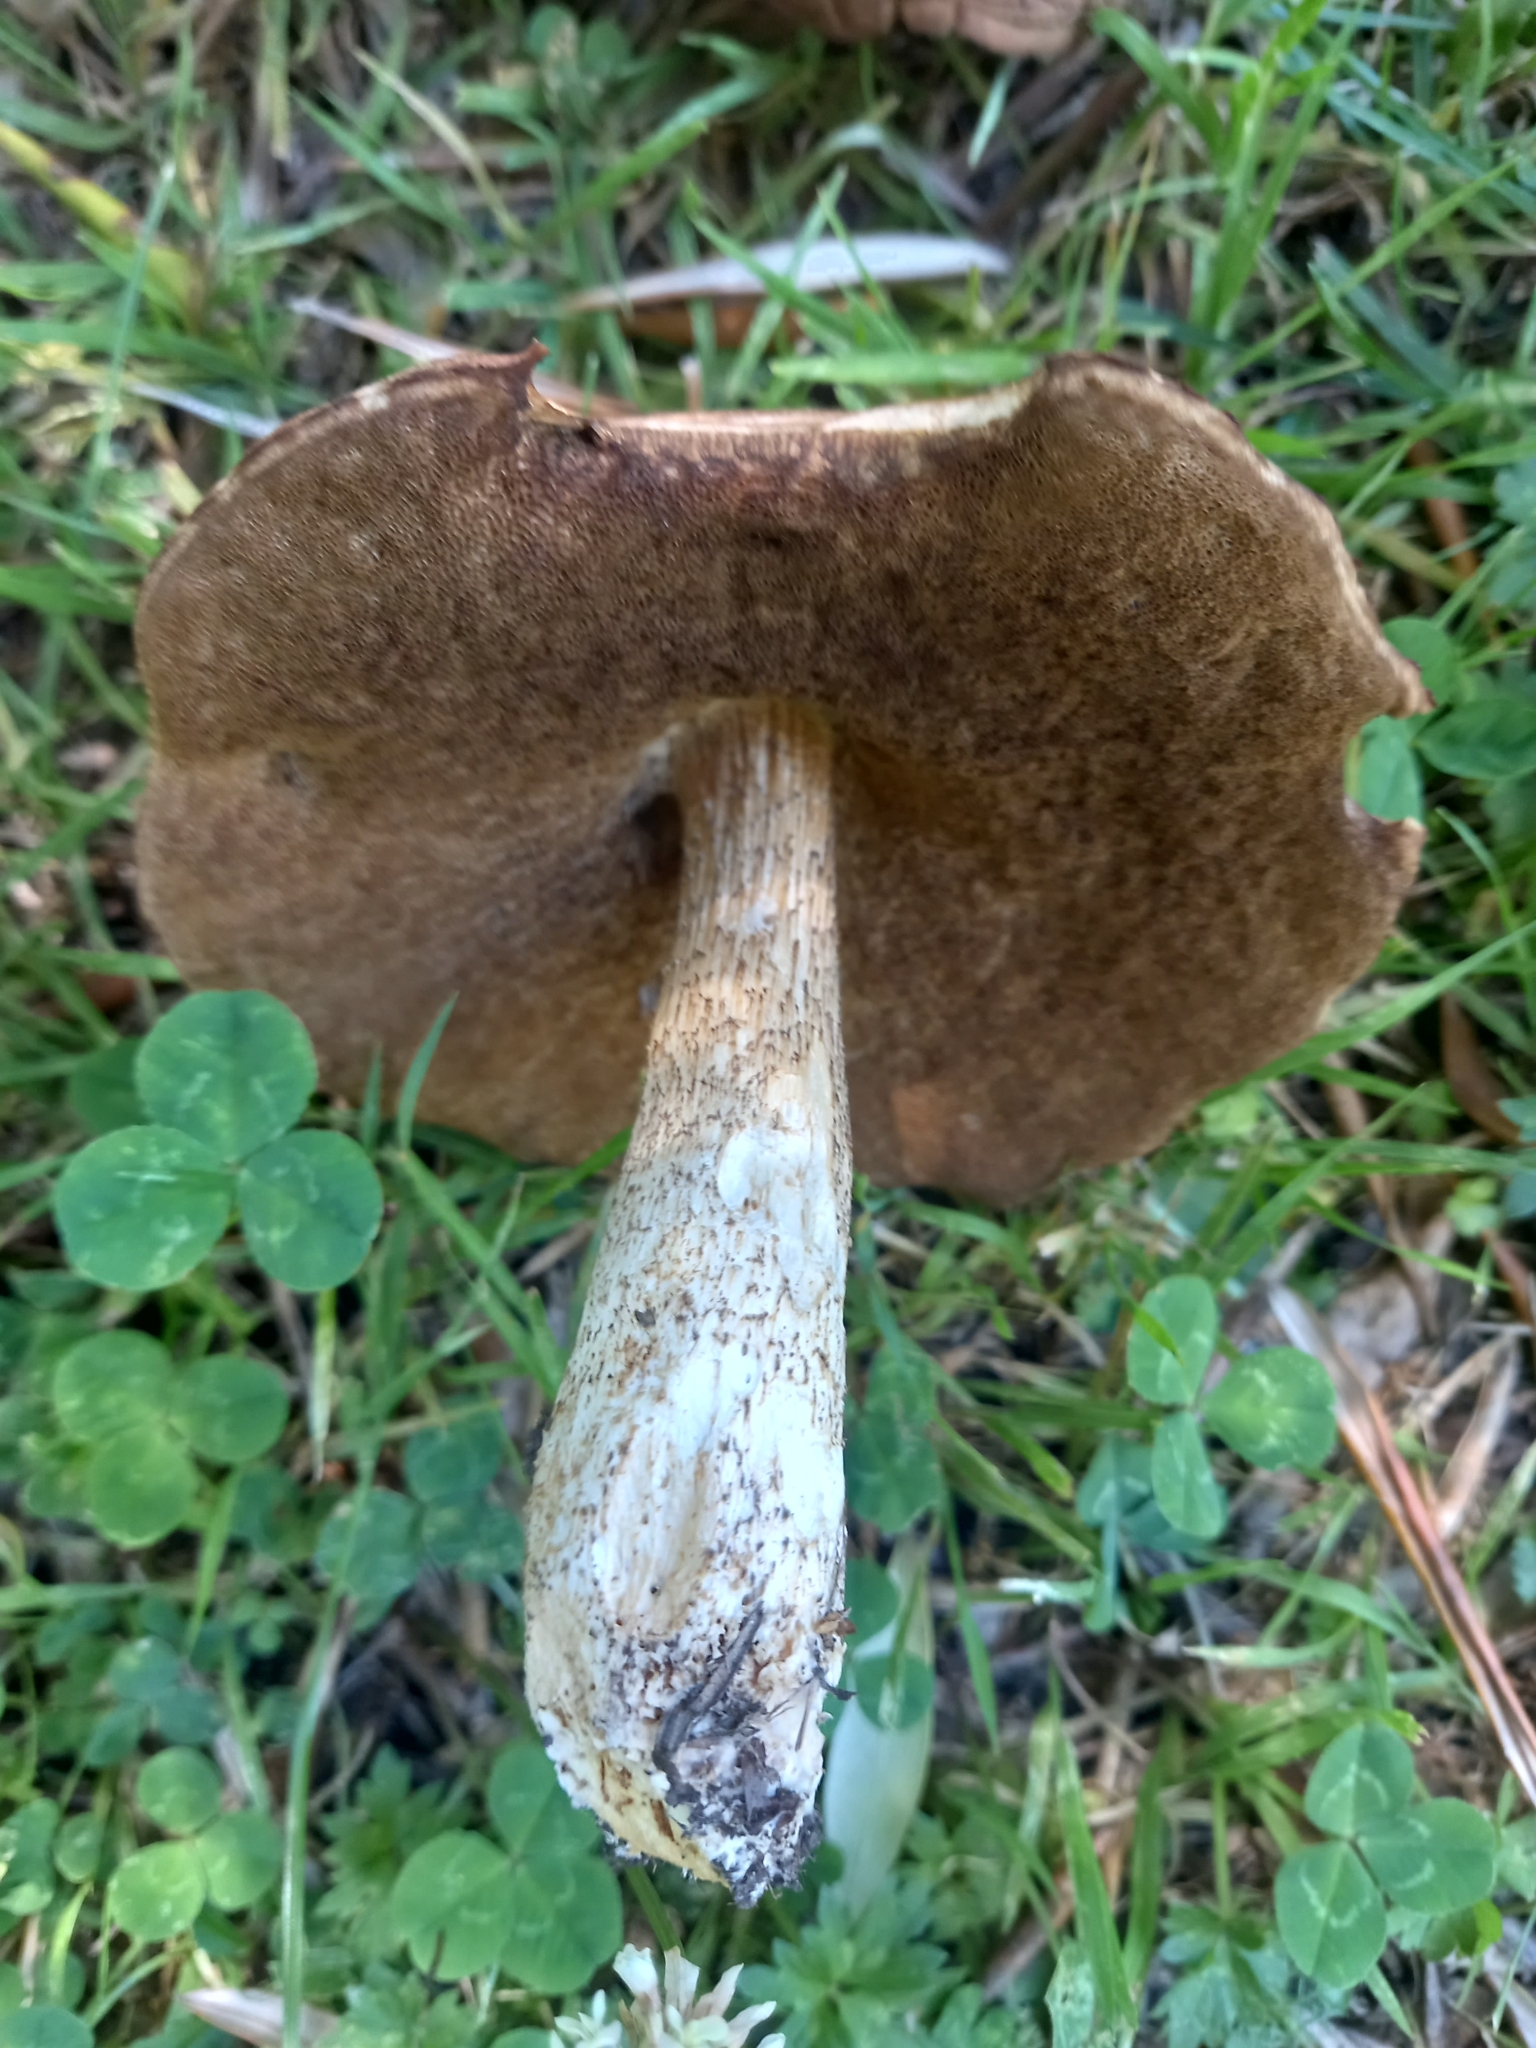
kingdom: Fungi
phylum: Basidiomycota
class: Agaricomycetes
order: Boletales
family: Boletaceae
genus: Leccinum
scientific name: Leccinum scabrum
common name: Blushing bolete
